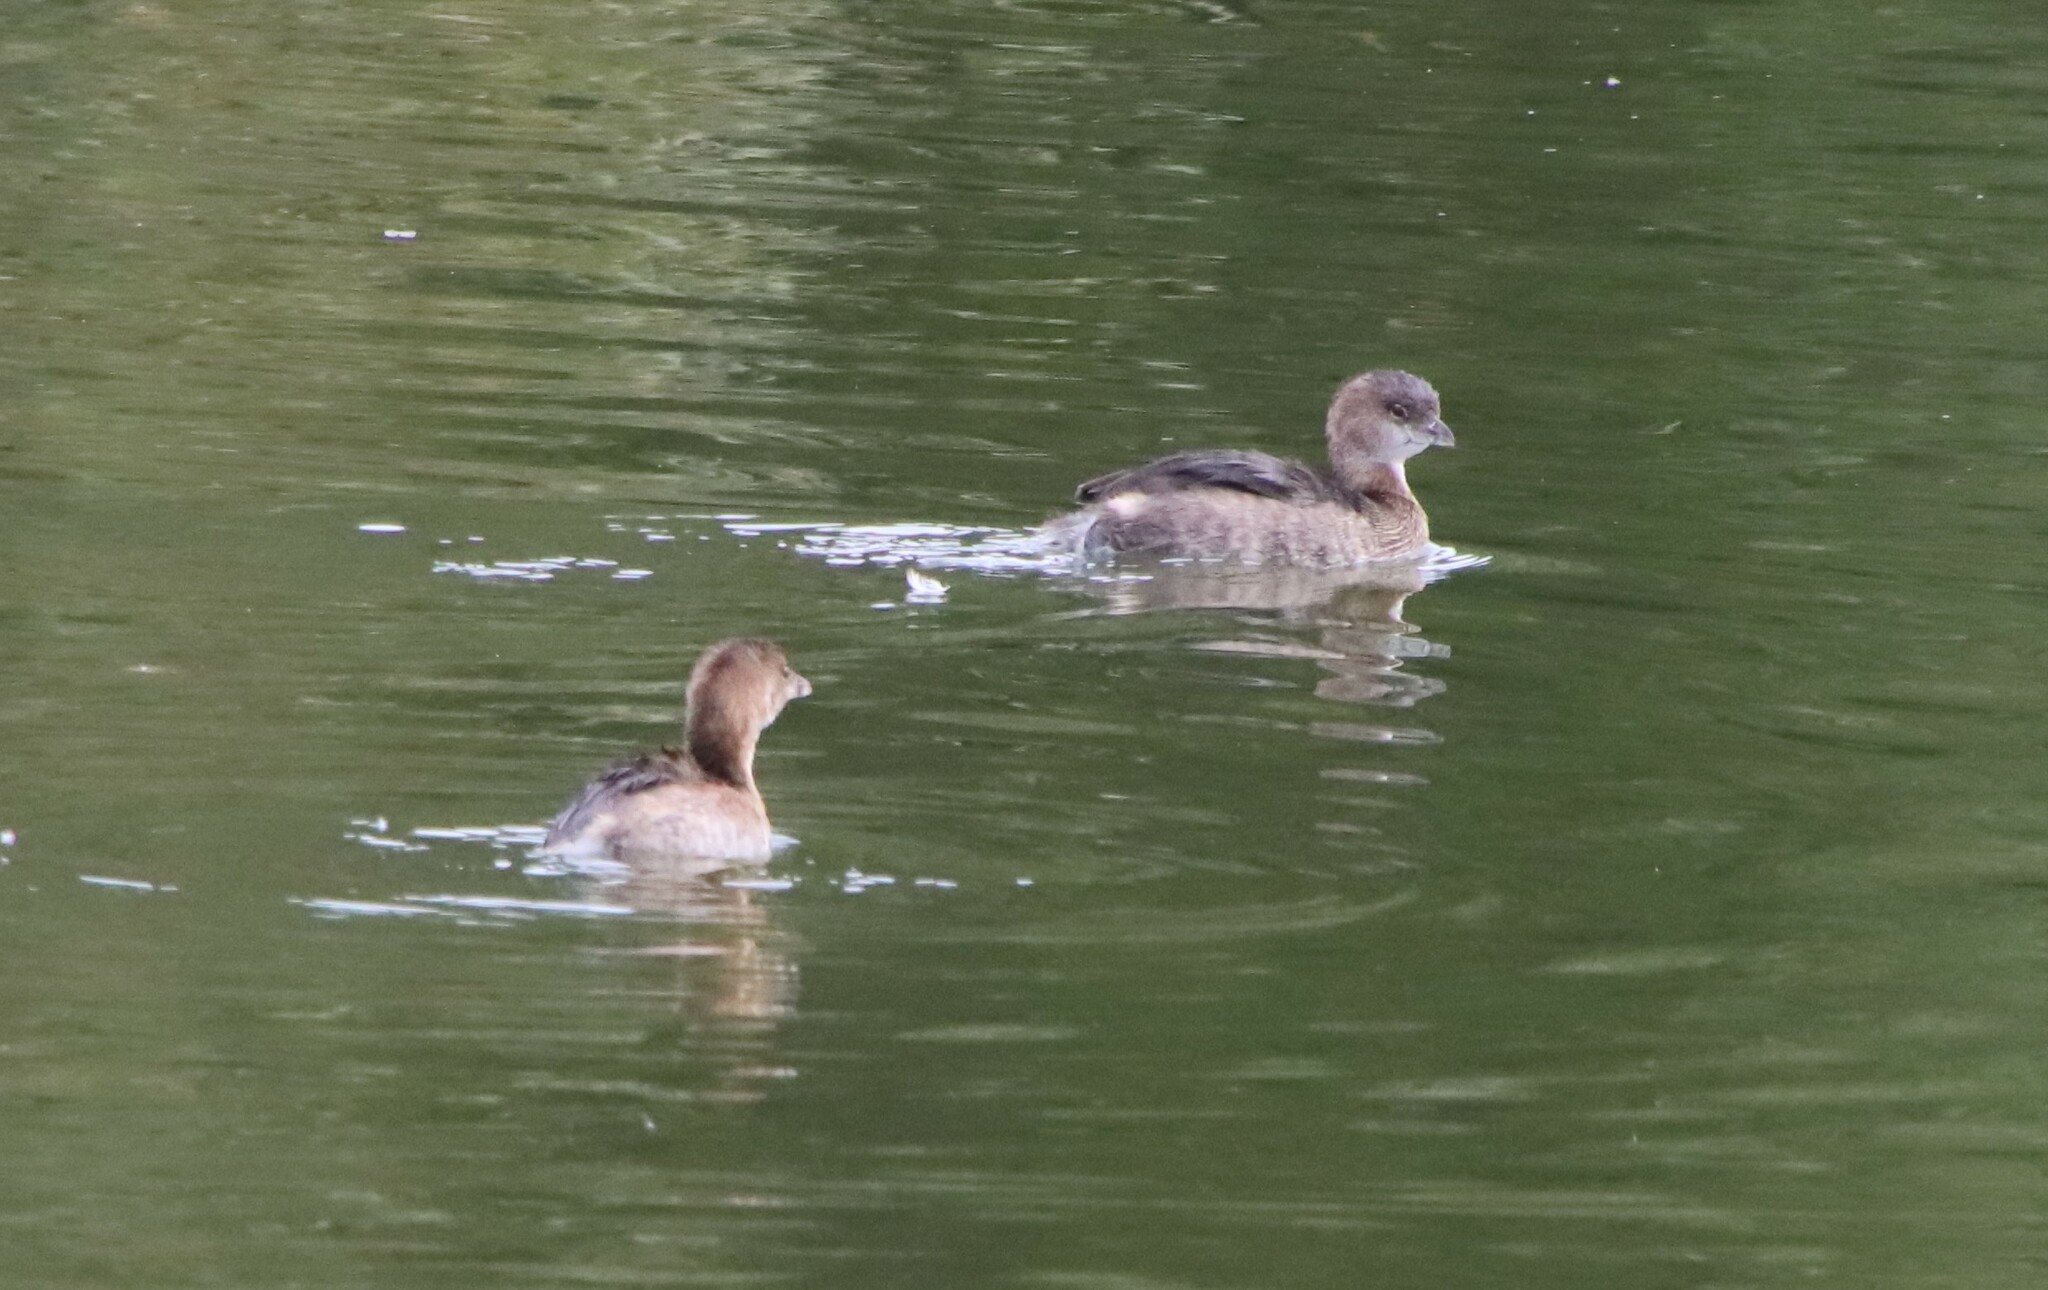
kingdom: Animalia
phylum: Chordata
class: Aves
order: Podicipediformes
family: Podicipedidae
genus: Podilymbus
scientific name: Podilymbus podiceps
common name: Pied-billed grebe
